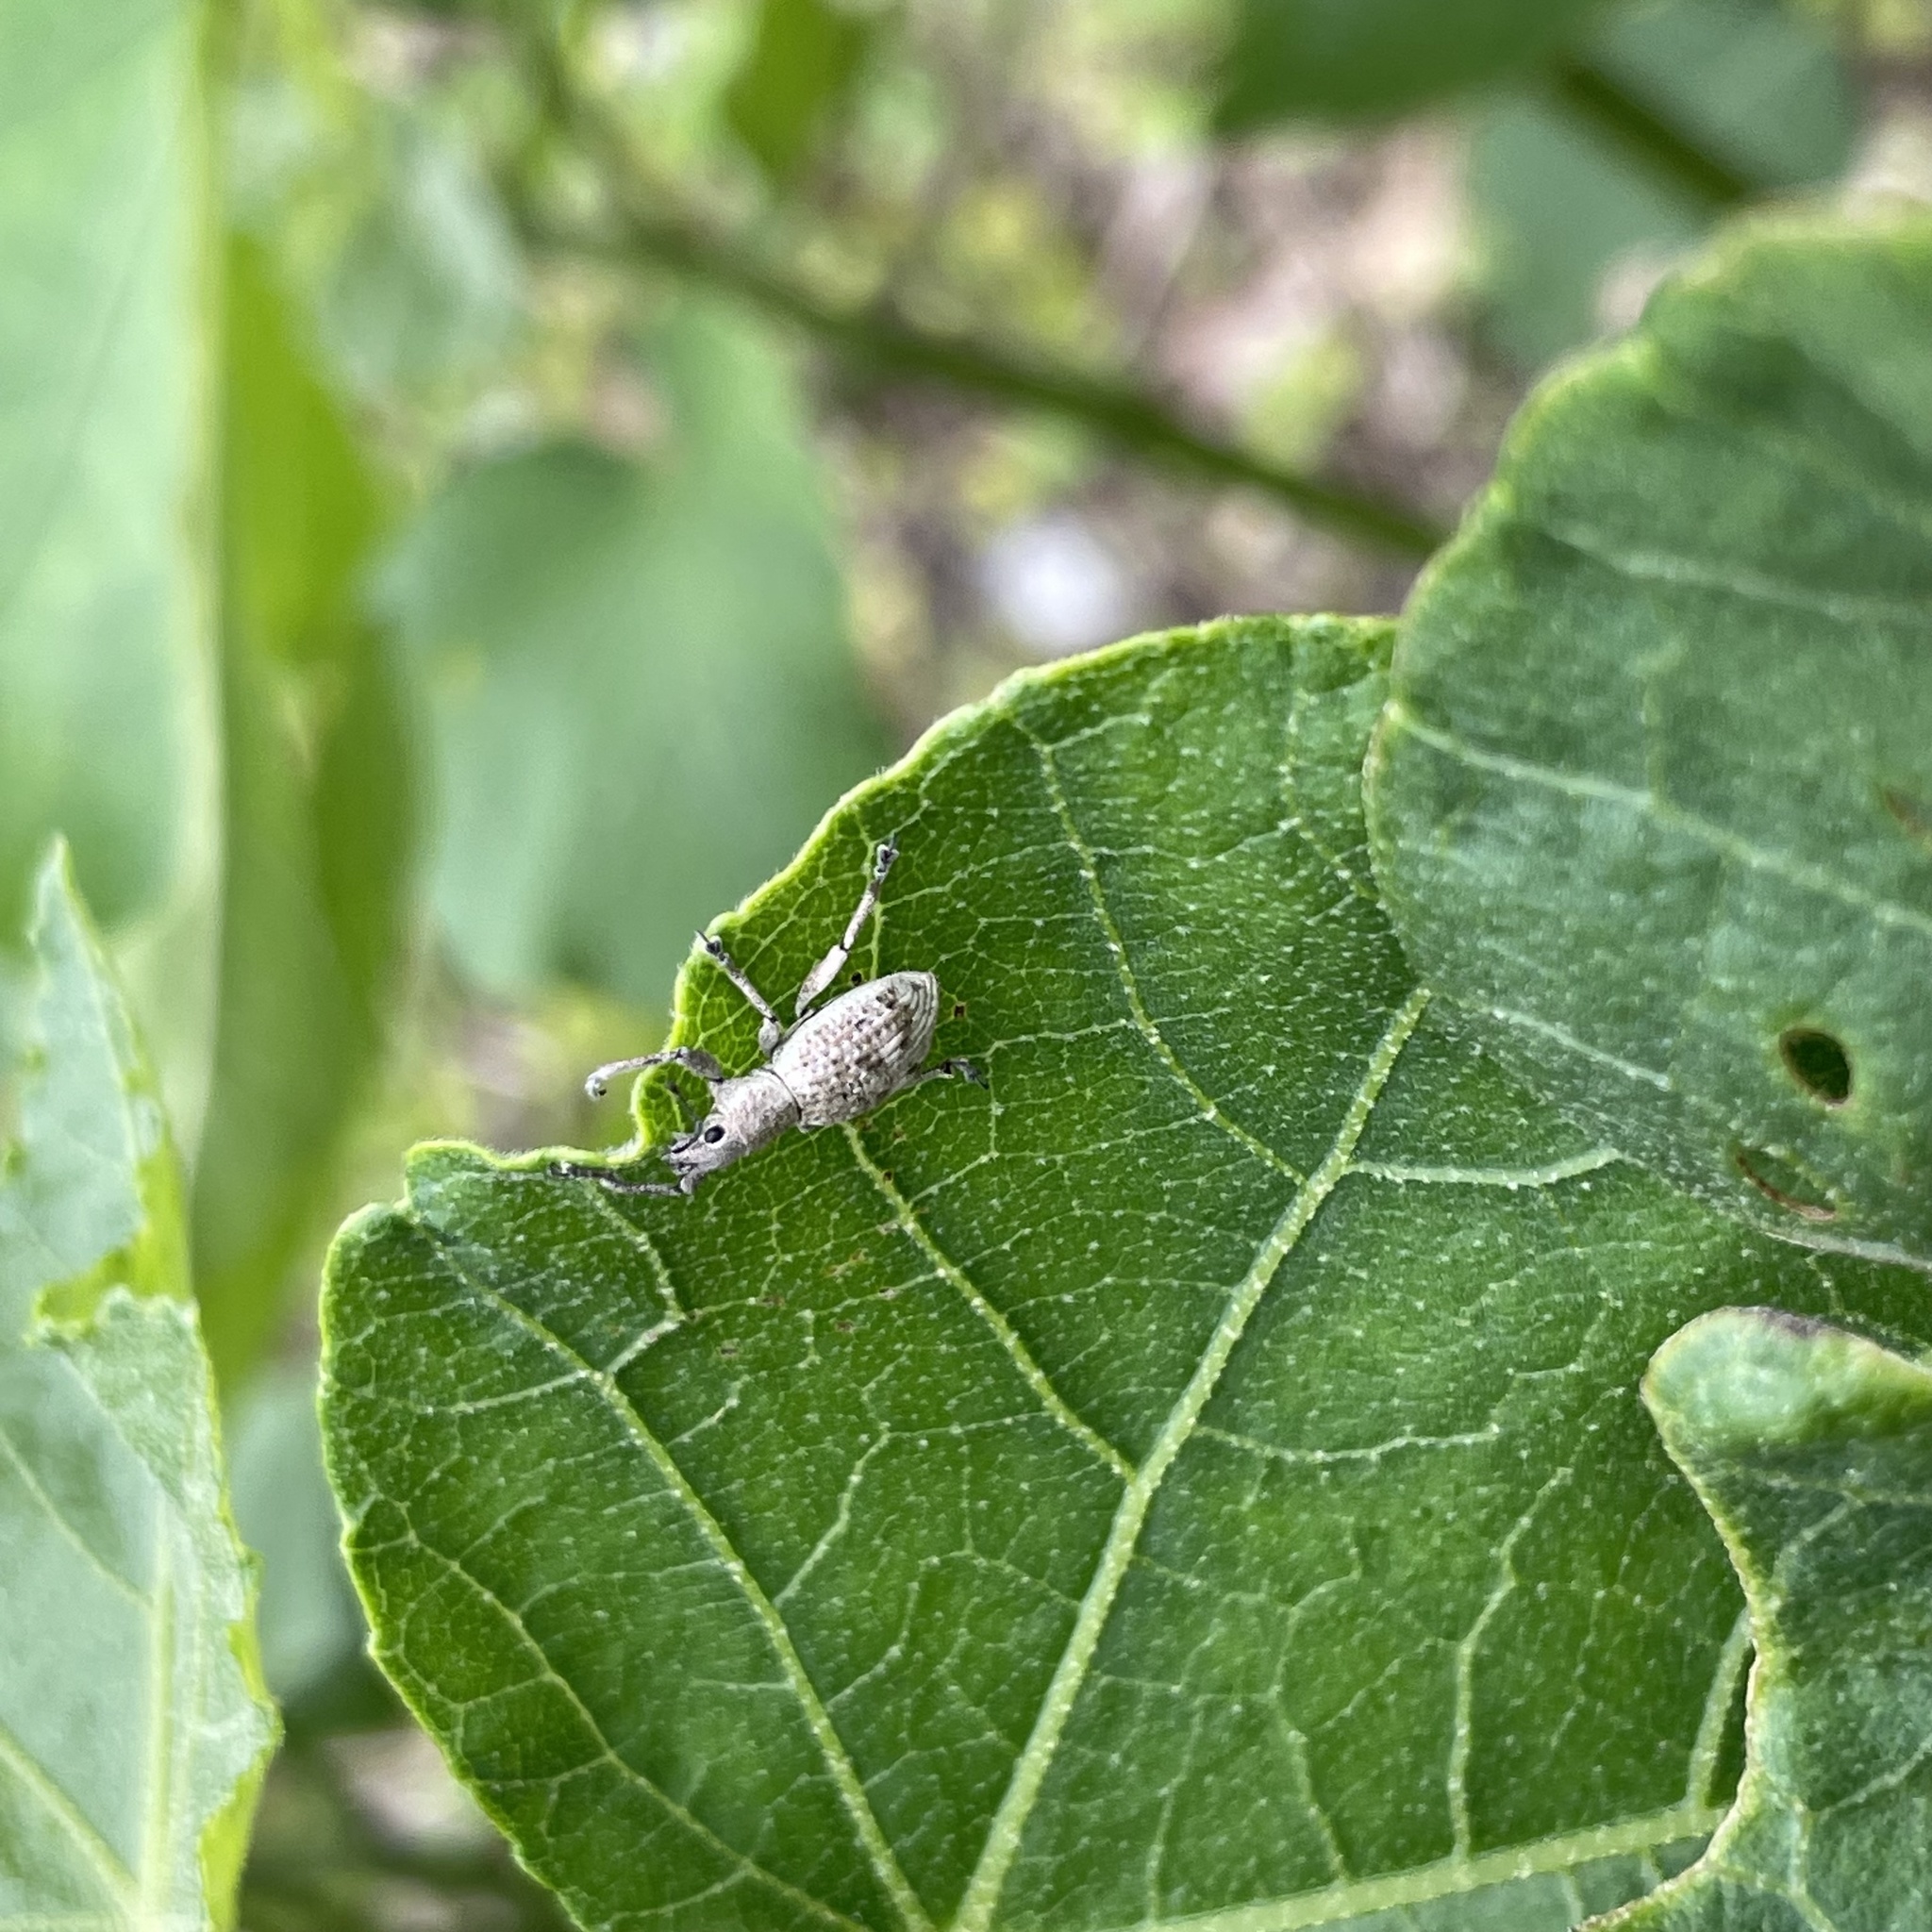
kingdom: Animalia
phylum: Arthropoda
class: Insecta
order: Coleoptera
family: Curculionidae
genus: Sympiezomias
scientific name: Sympiezomias cribricollis
